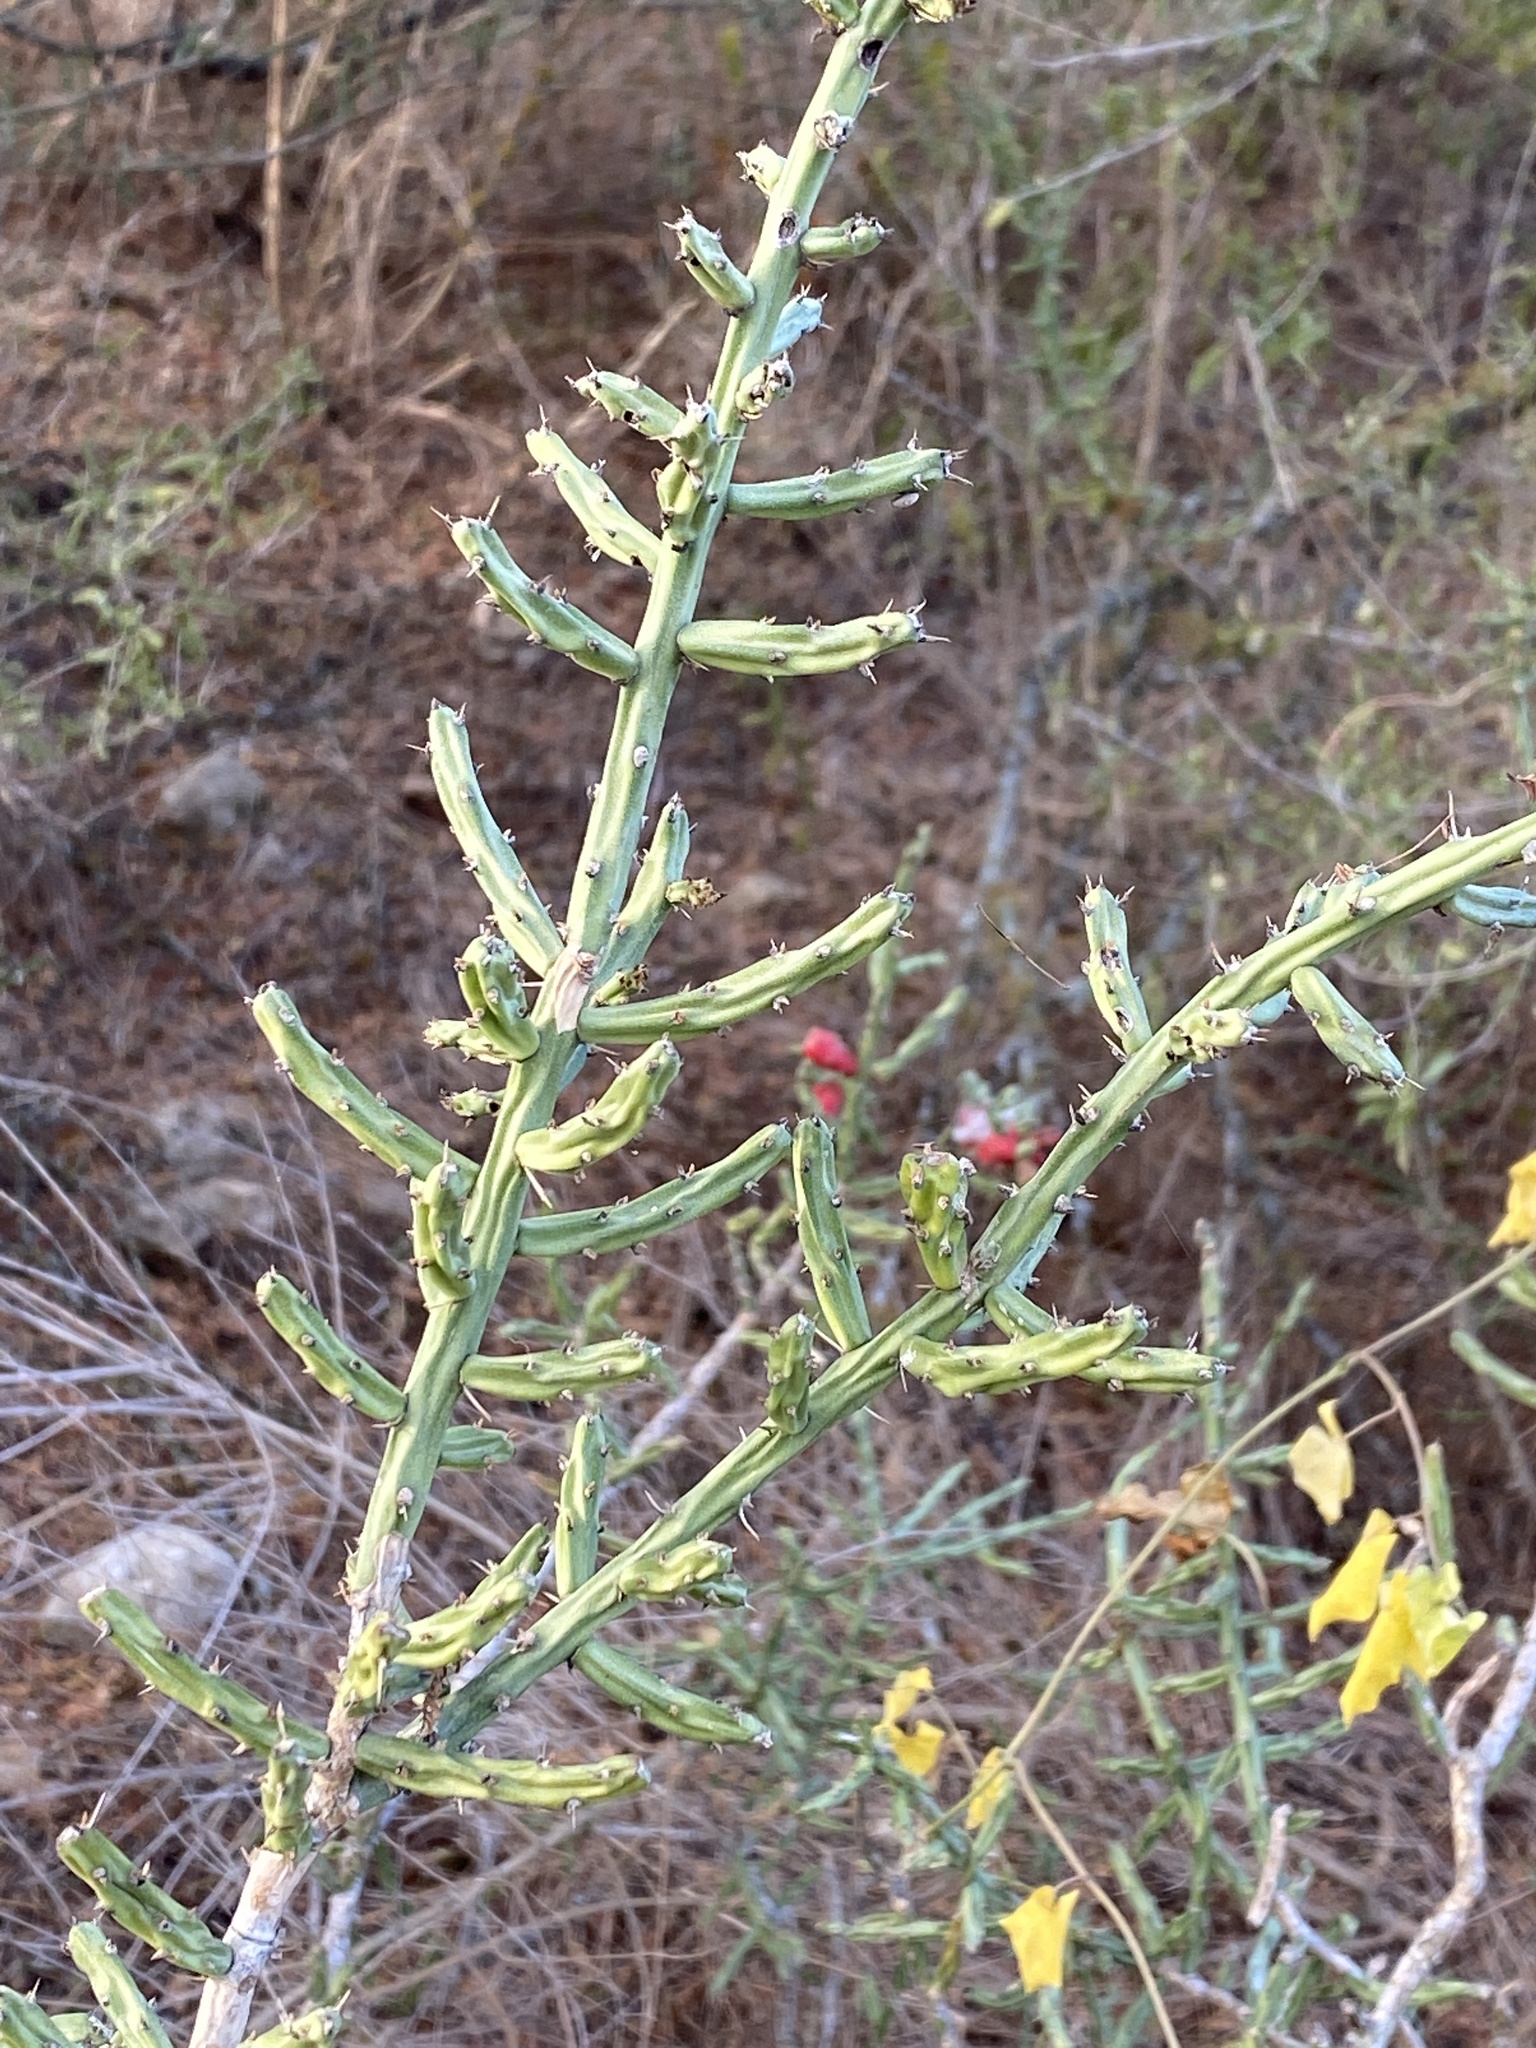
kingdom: Plantae
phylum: Tracheophyta
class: Magnoliopsida
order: Caryophyllales
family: Cactaceae
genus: Cylindropuntia
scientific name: Cylindropuntia leptocaulis
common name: Christmas cactus
